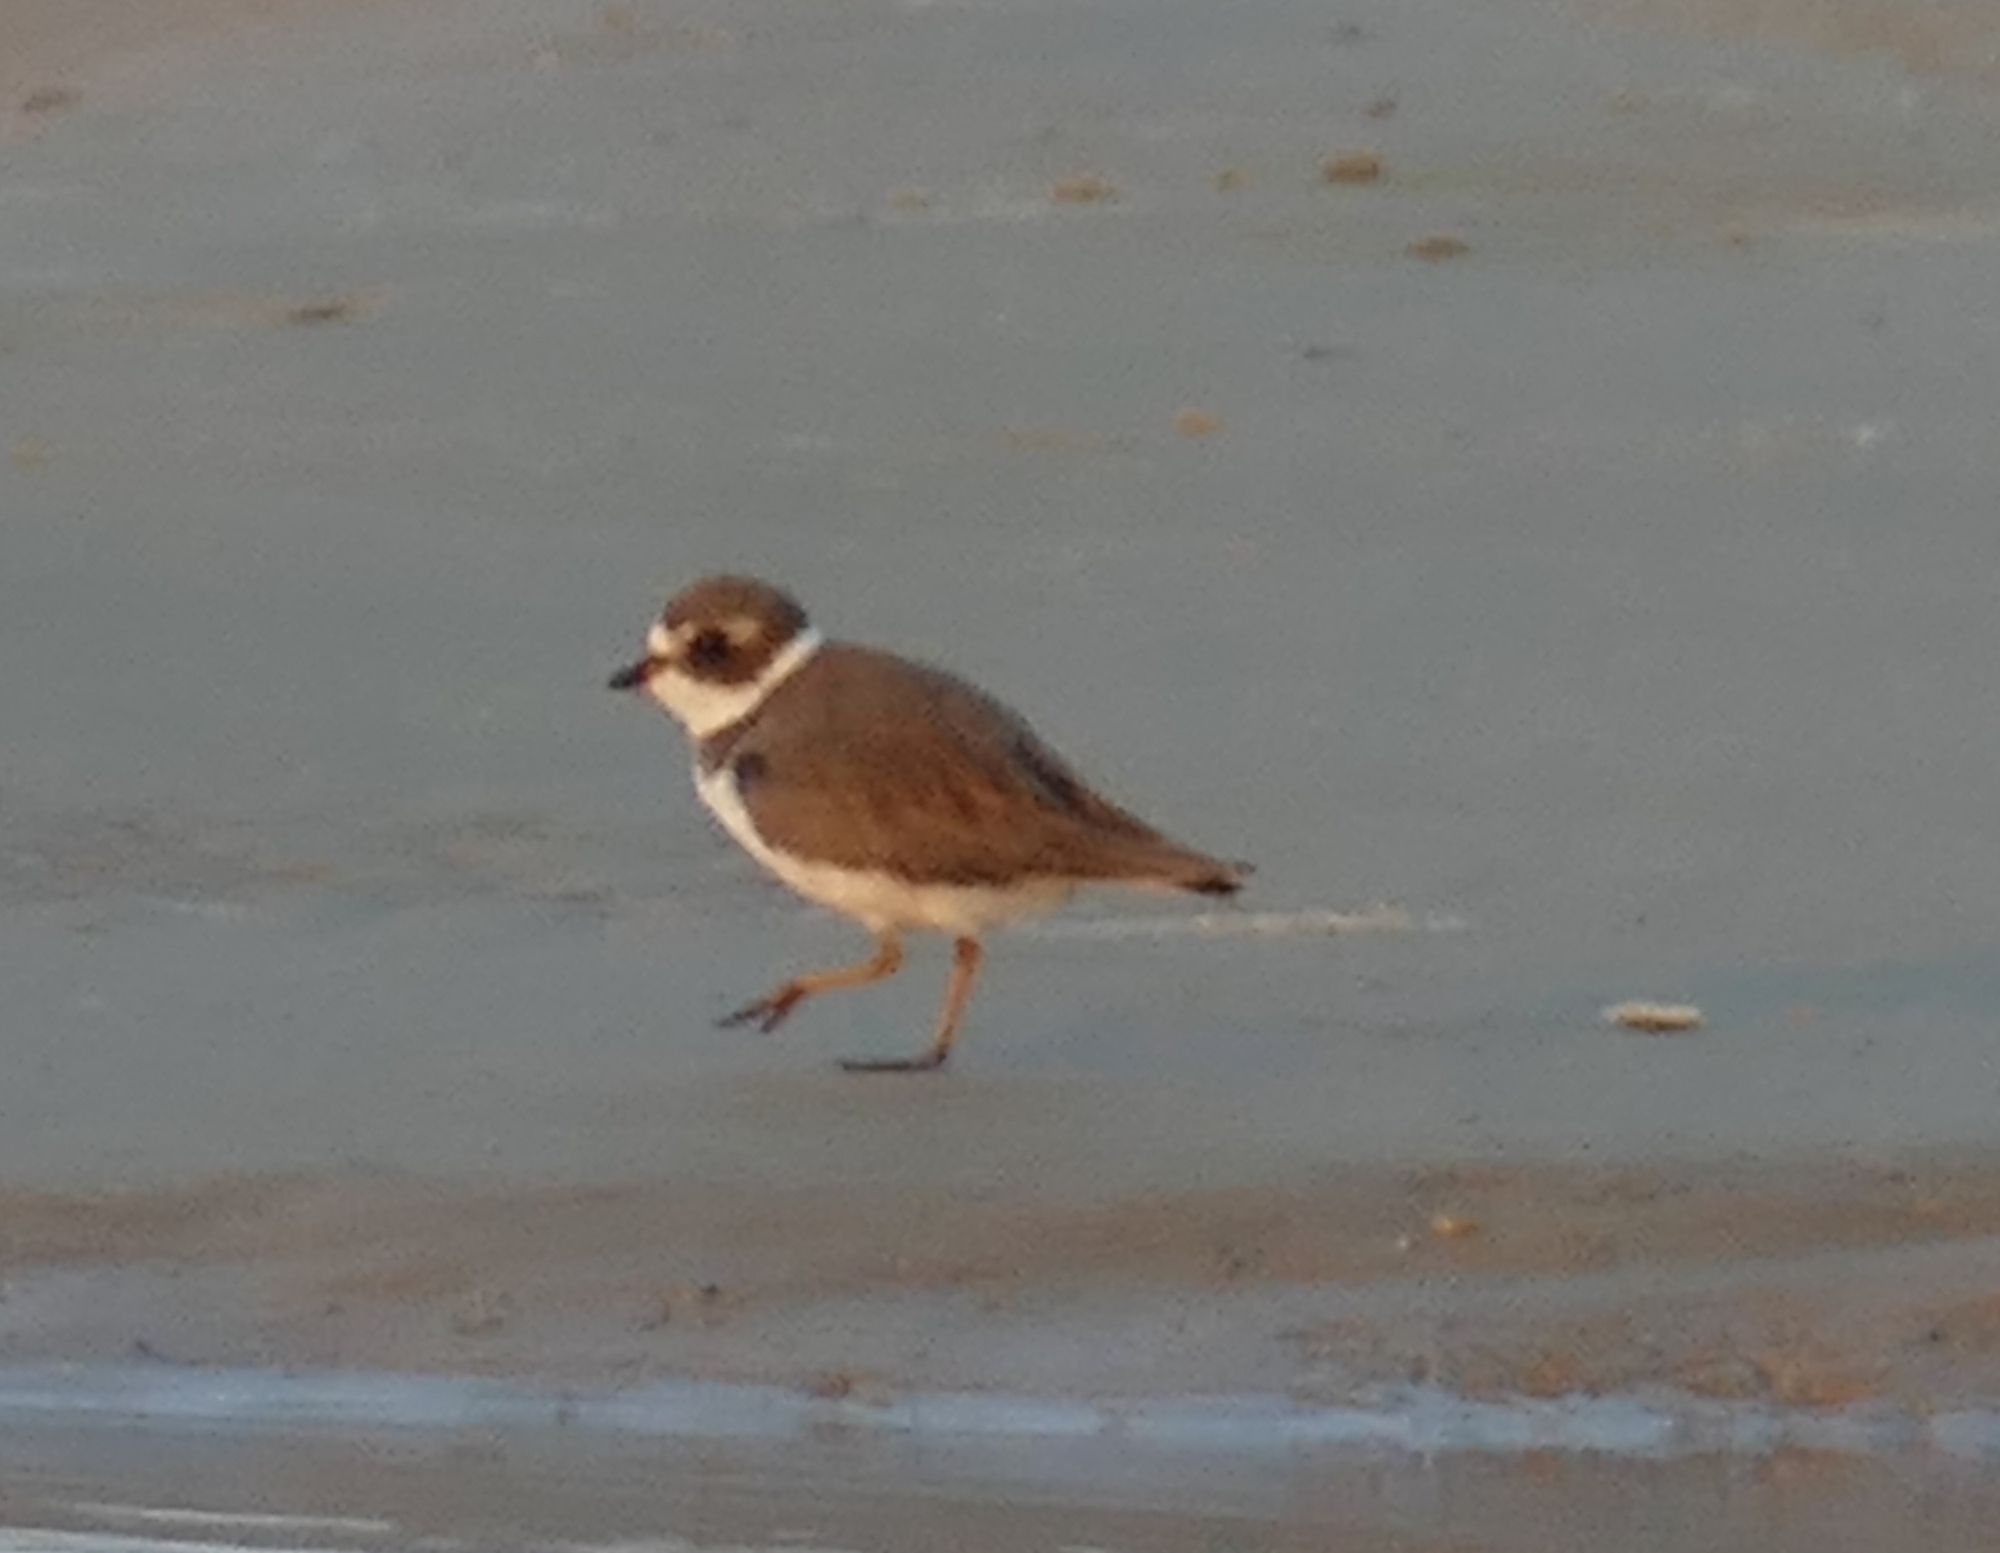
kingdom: Animalia
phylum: Chordata
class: Aves
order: Charadriiformes
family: Charadriidae
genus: Charadrius
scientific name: Charadrius semipalmatus
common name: Semipalmated plover
